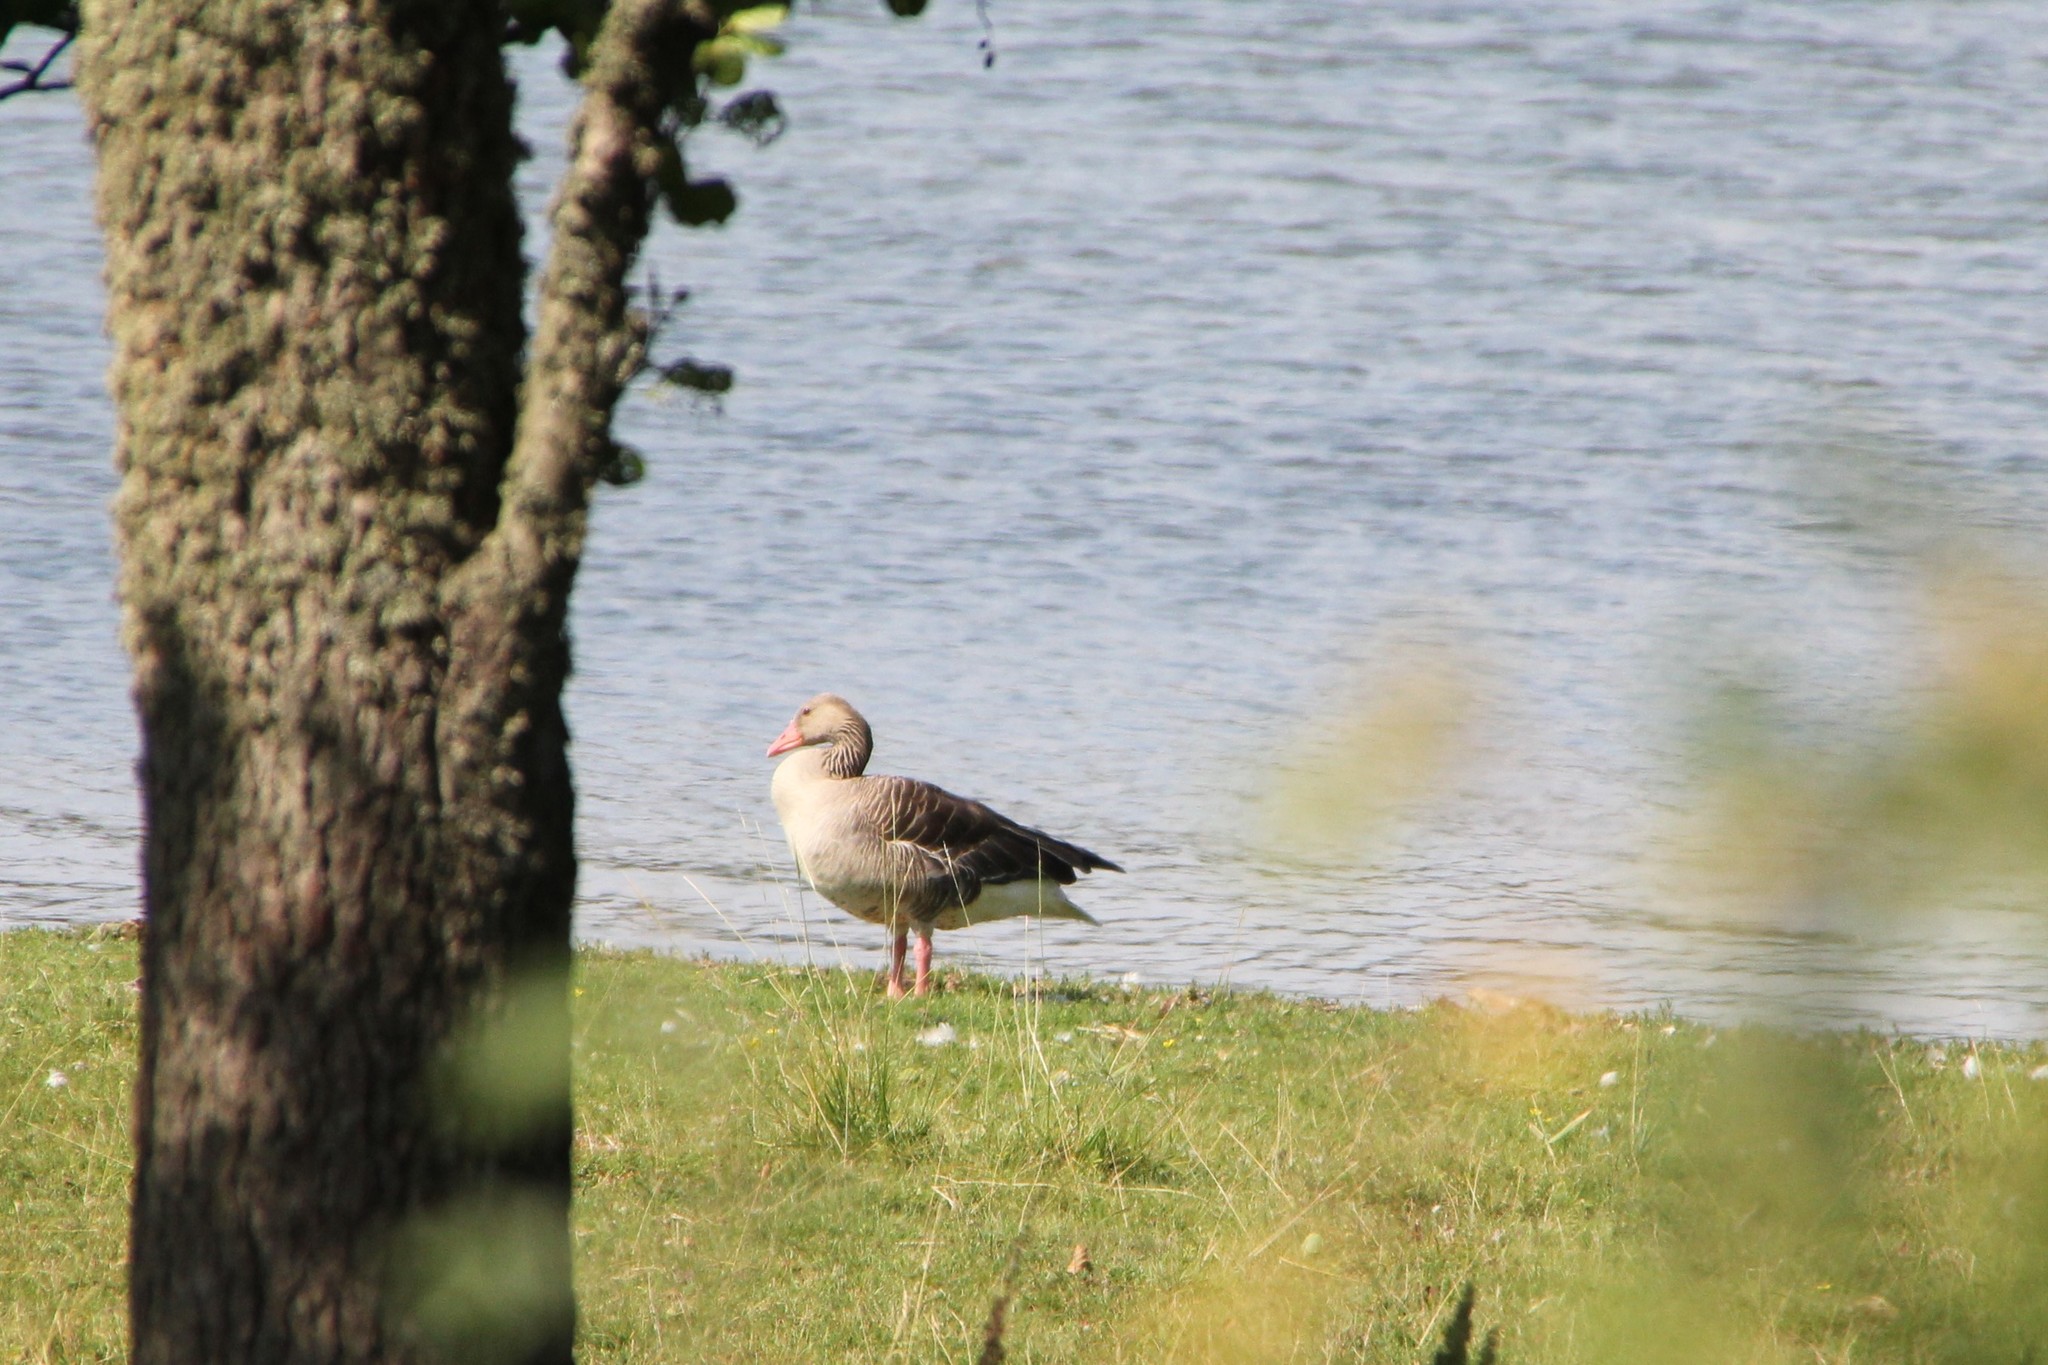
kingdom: Animalia
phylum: Chordata
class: Aves
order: Anseriformes
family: Anatidae
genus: Anser
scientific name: Anser anser
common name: Greylag goose
